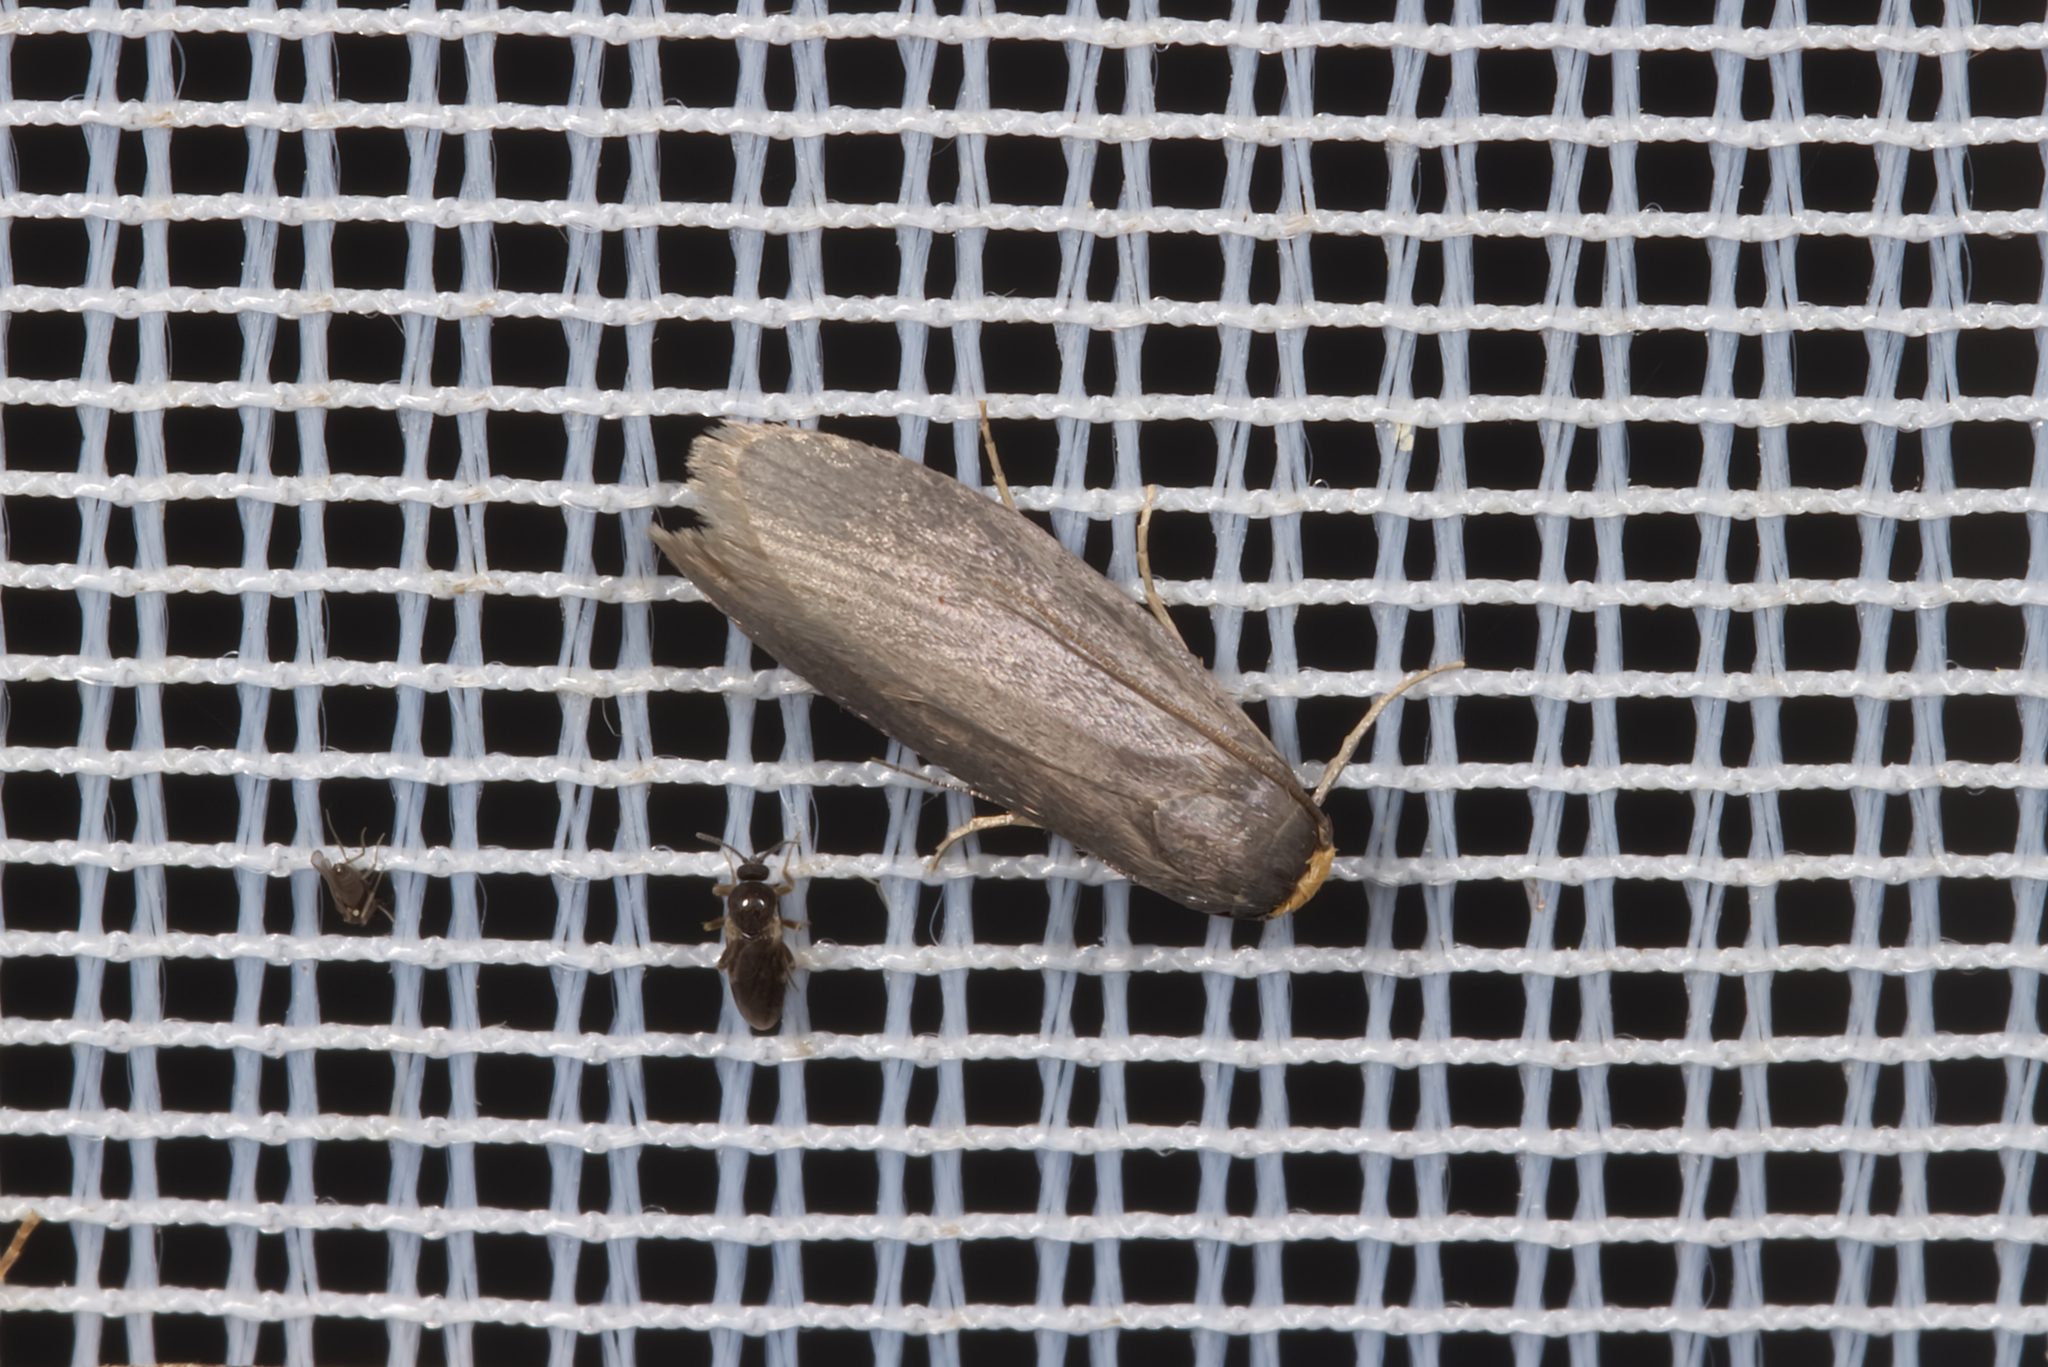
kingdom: Animalia
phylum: Arthropoda
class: Insecta
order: Lepidoptera
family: Pyralidae
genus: Achroia
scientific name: Achroia grisella
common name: Lesser wax moth
